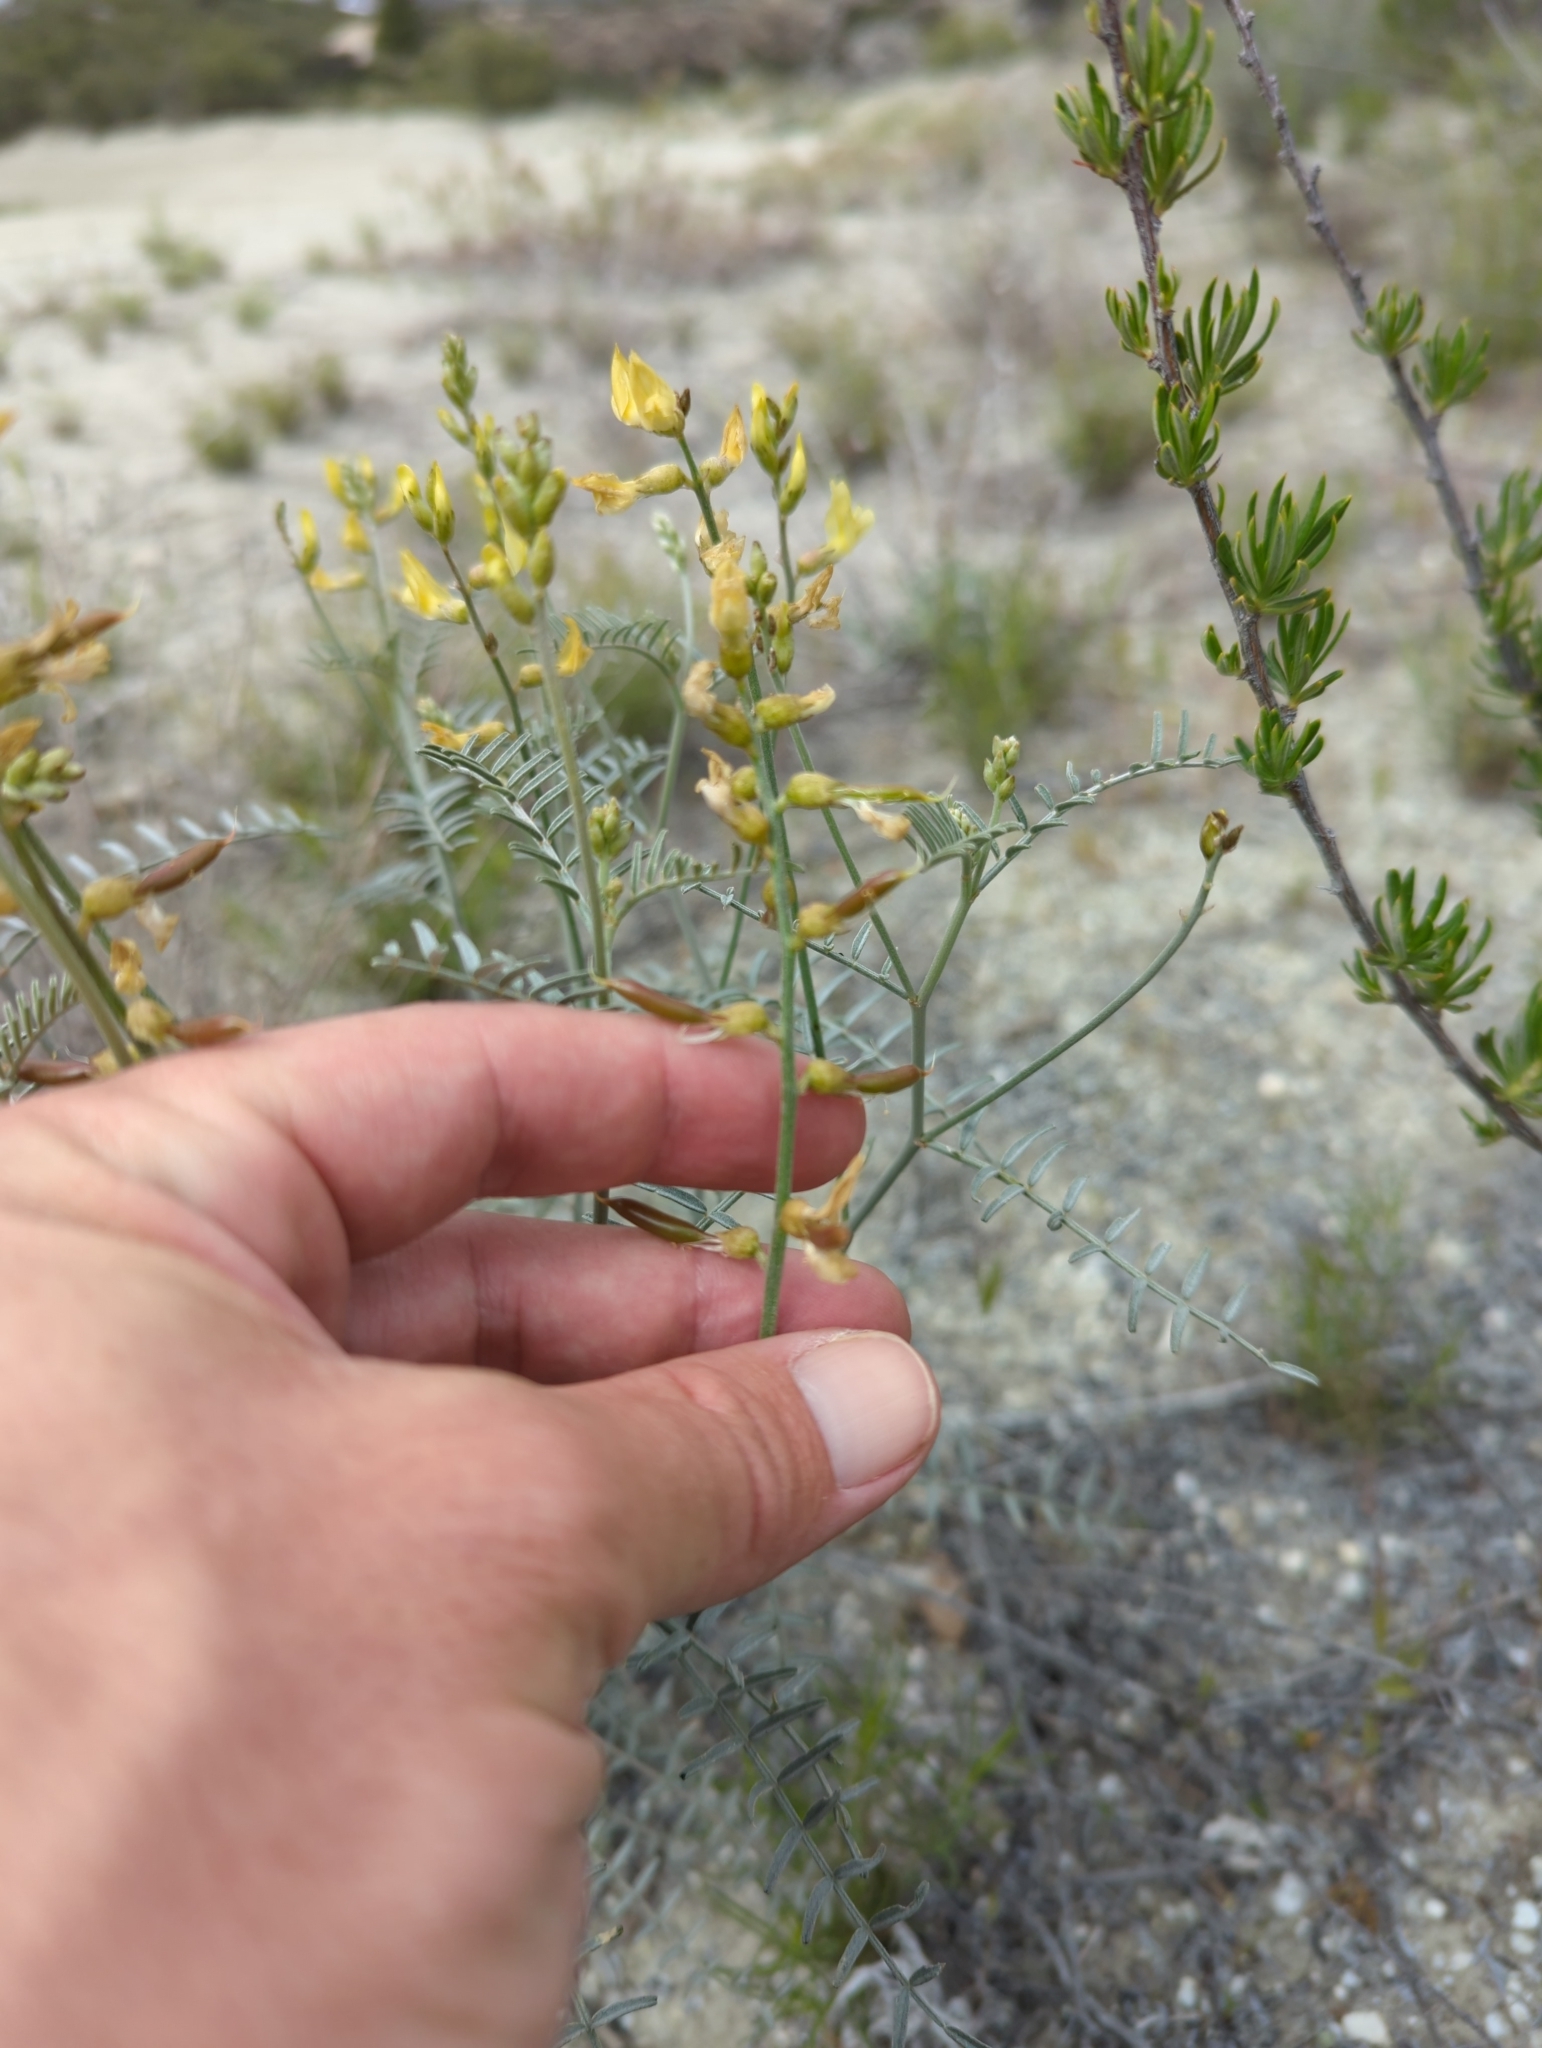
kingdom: Plantae
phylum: Tracheophyta
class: Magnoliopsida
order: Fabales
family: Fabaceae
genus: Astragalus
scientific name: Astragalus pachypus
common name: Thick-pod milkvetch
